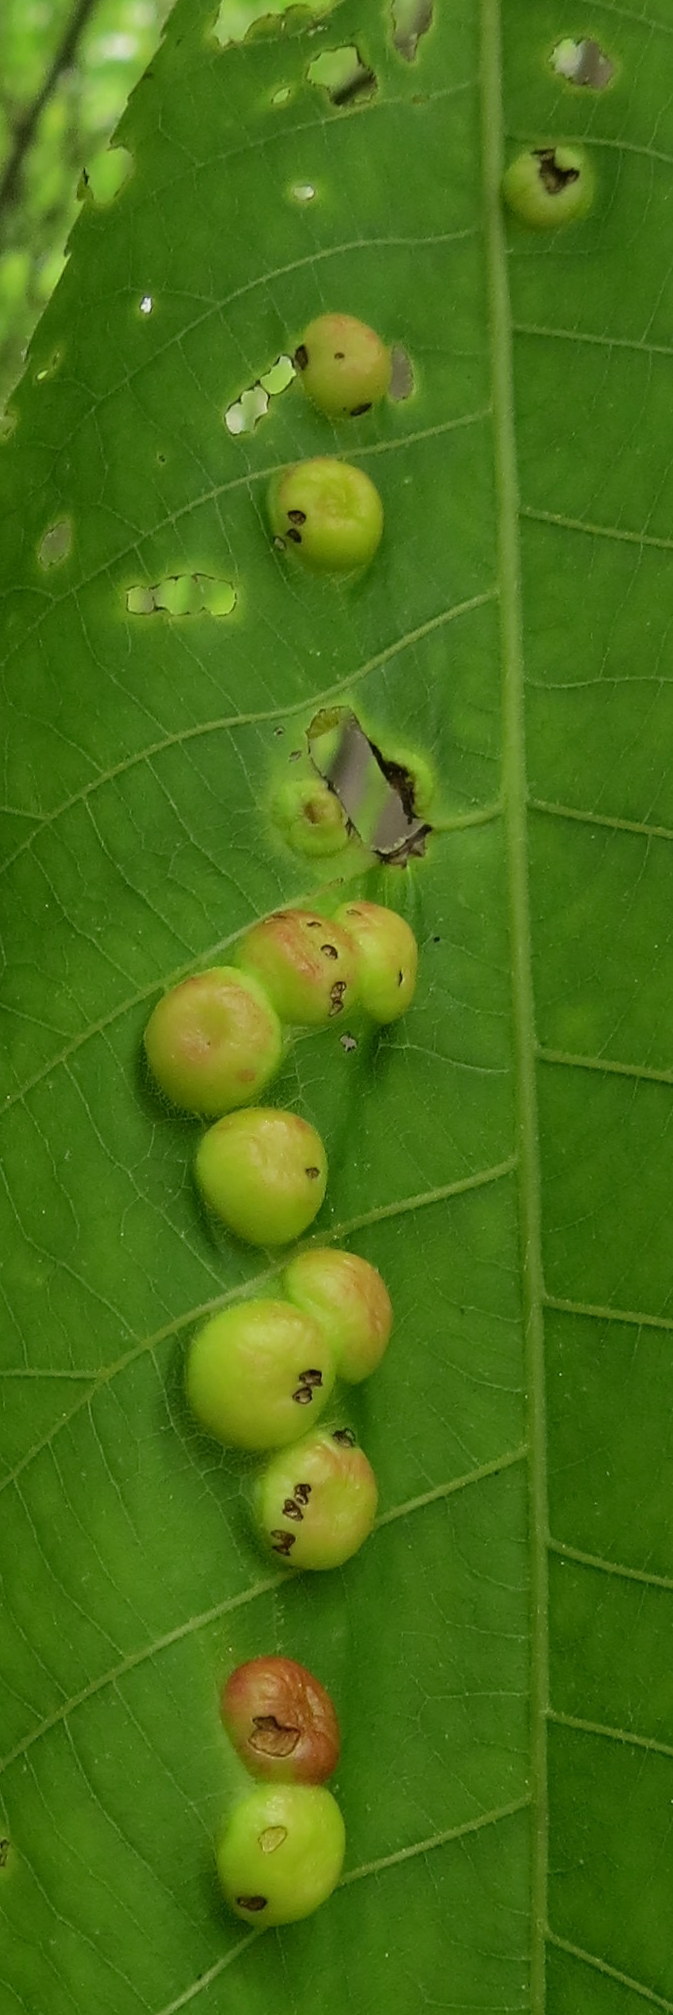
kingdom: Animalia
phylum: Arthropoda
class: Insecta
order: Hemiptera
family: Phylloxeridae
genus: Phylloxera
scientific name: Phylloxera caryae-globuli
